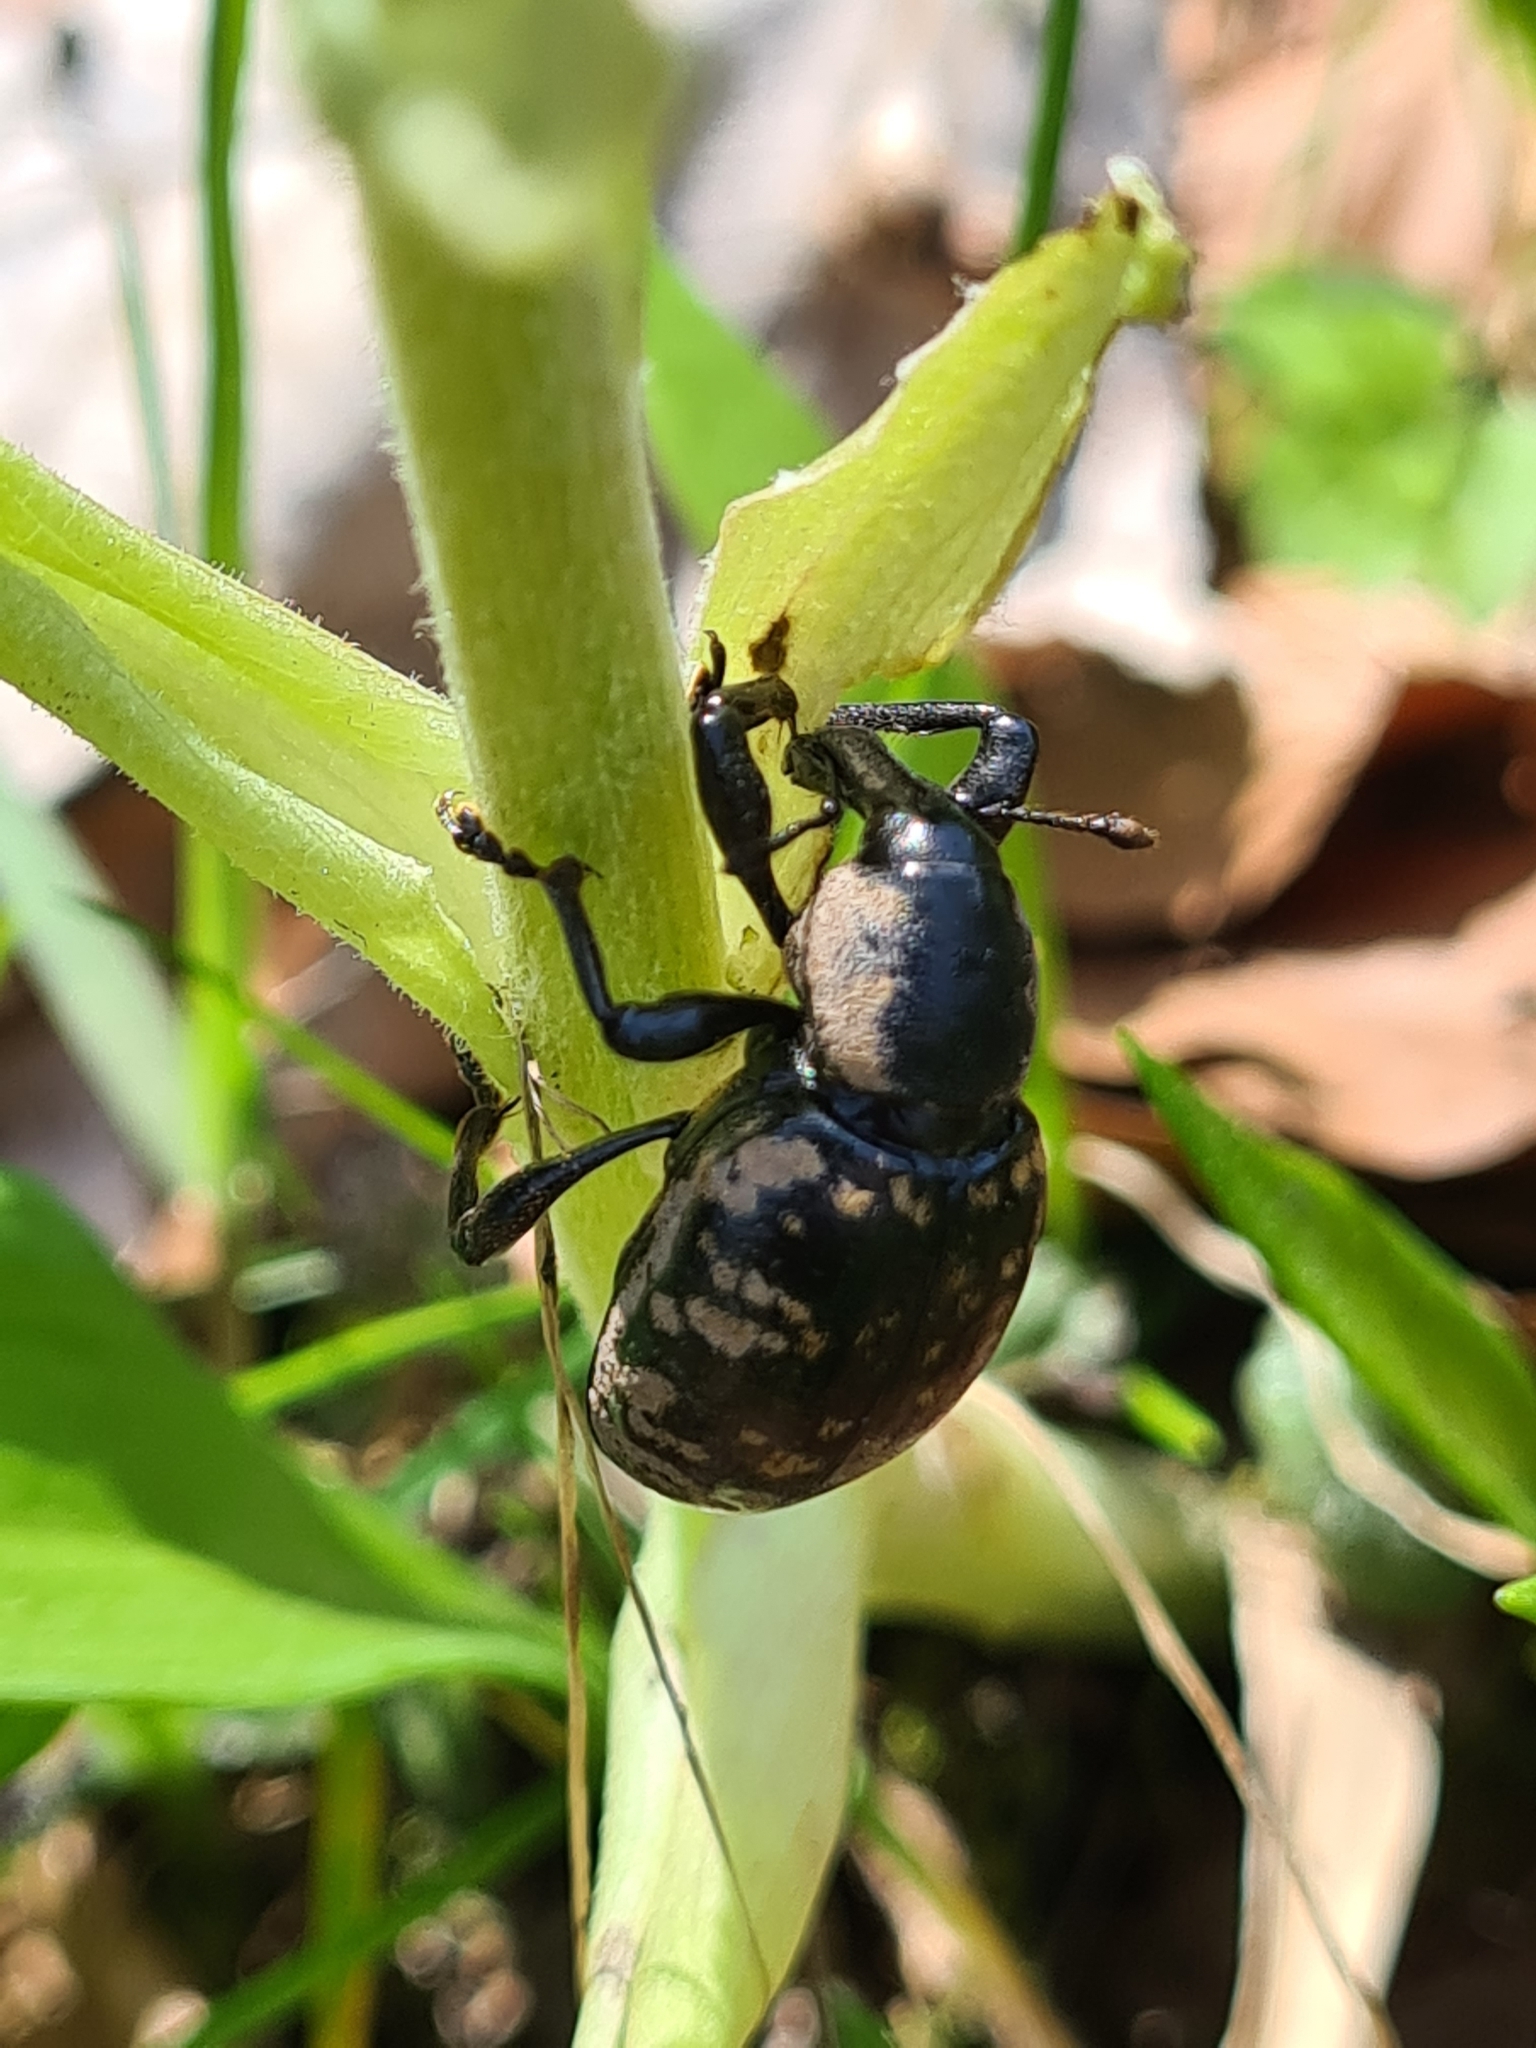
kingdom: Animalia
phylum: Arthropoda
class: Insecta
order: Coleoptera
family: Curculionidae
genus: Liparus
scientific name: Liparus glabrirostris
